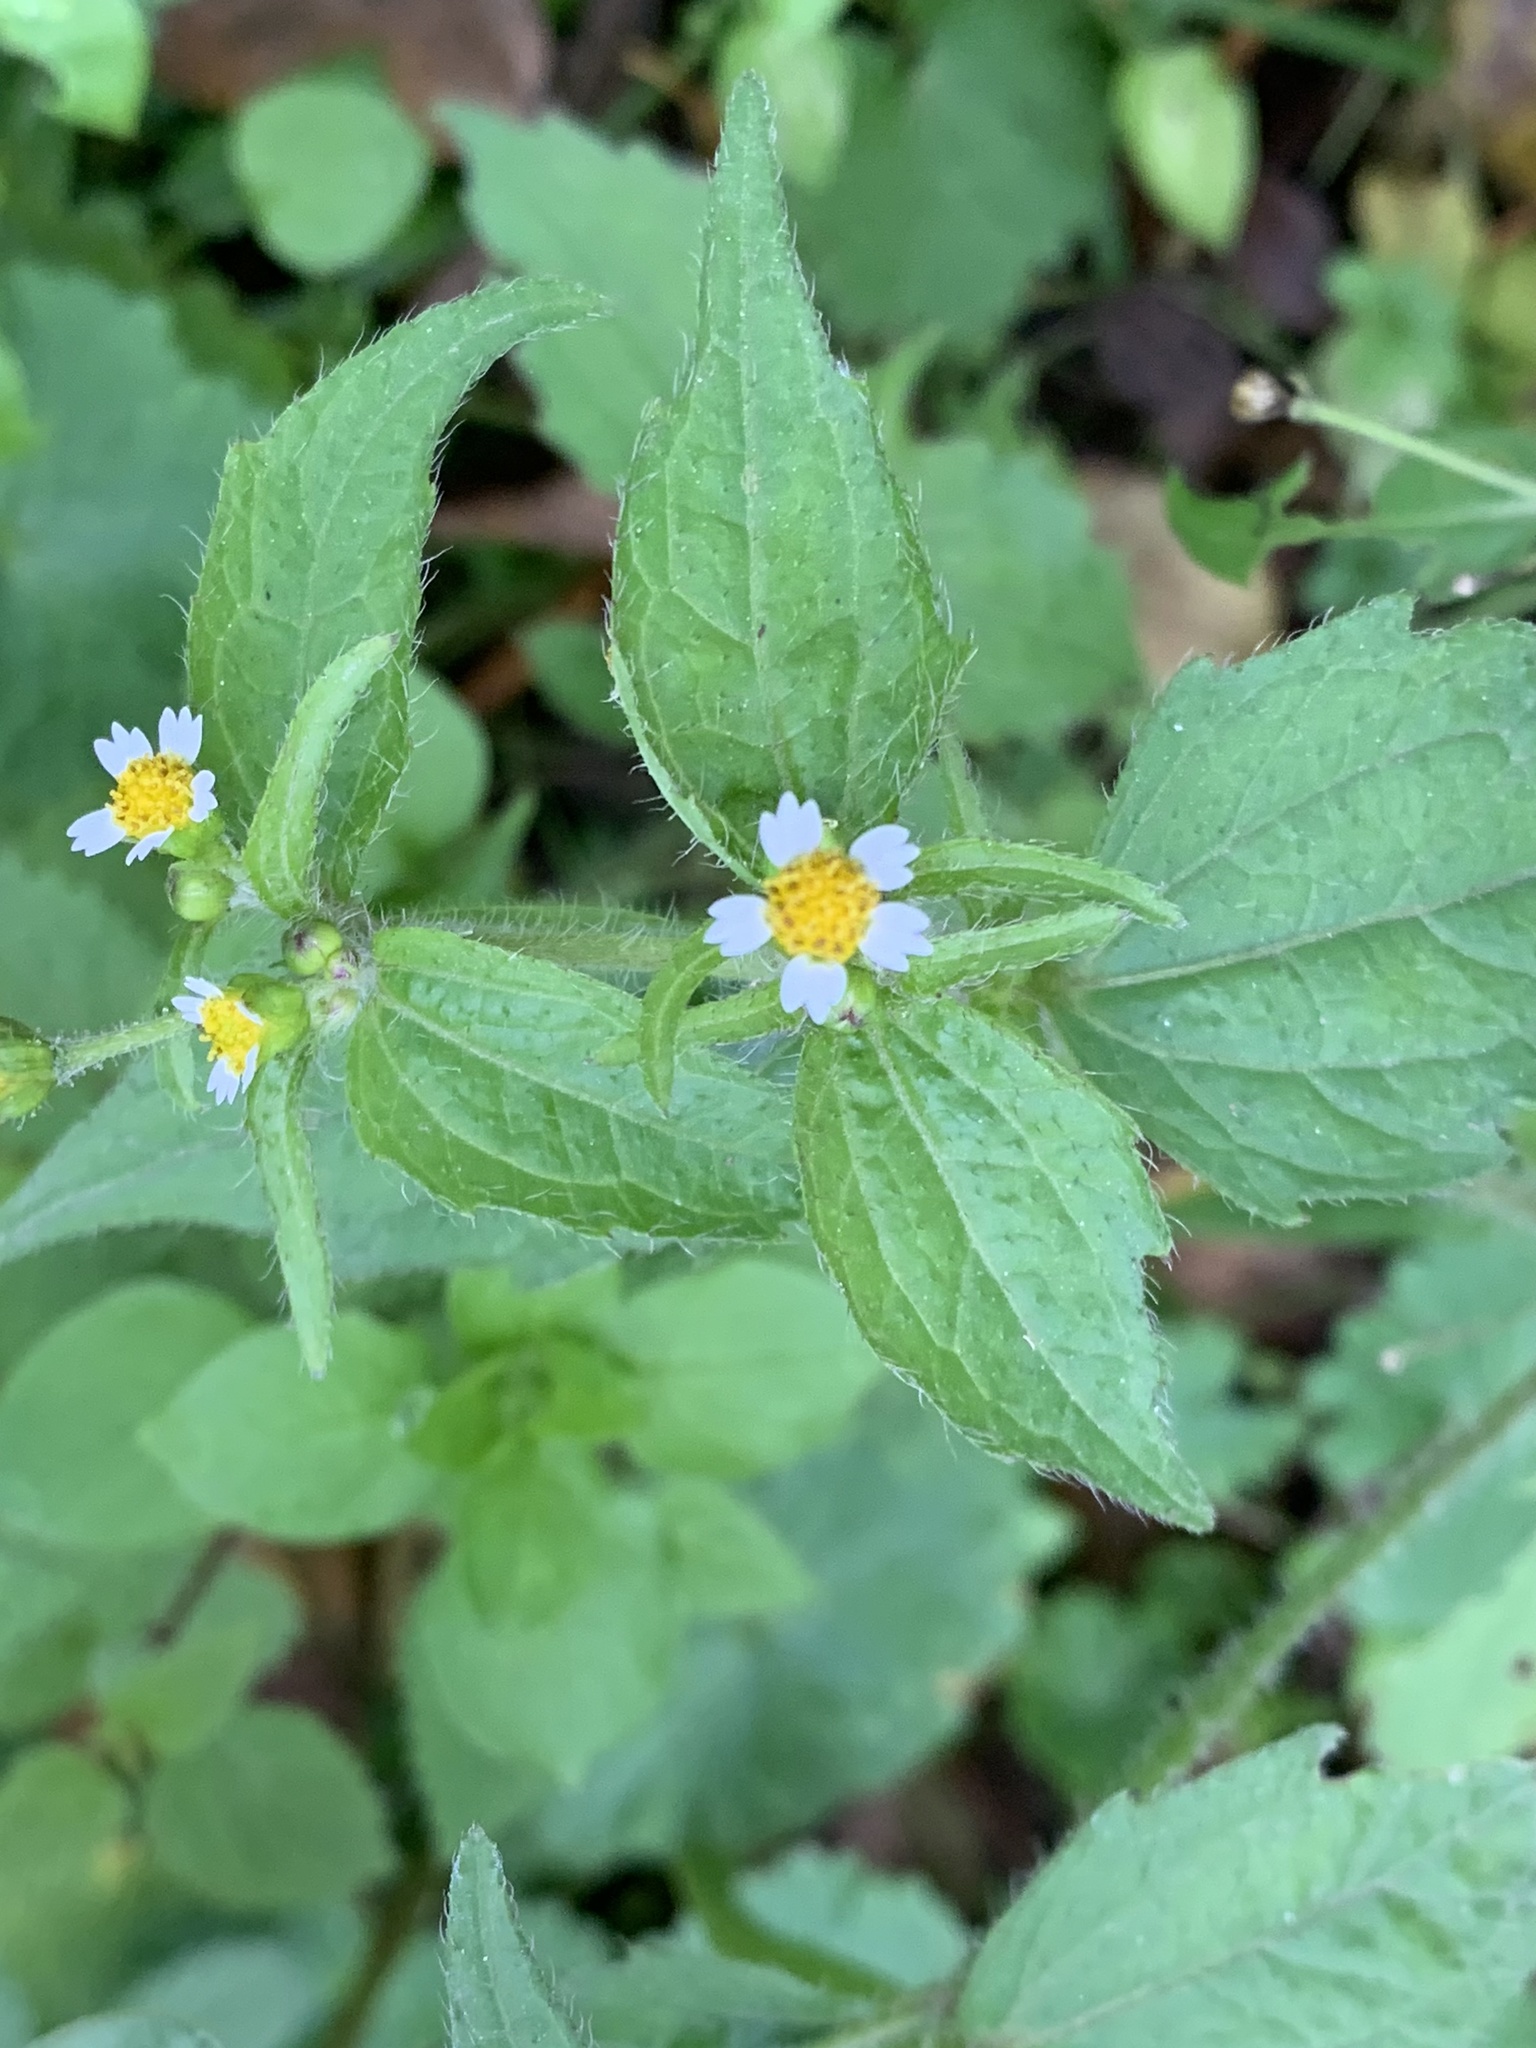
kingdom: Plantae
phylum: Tracheophyta
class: Magnoliopsida
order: Asterales
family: Asteraceae
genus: Galinsoga
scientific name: Galinsoga quadriradiata
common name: Shaggy soldier
